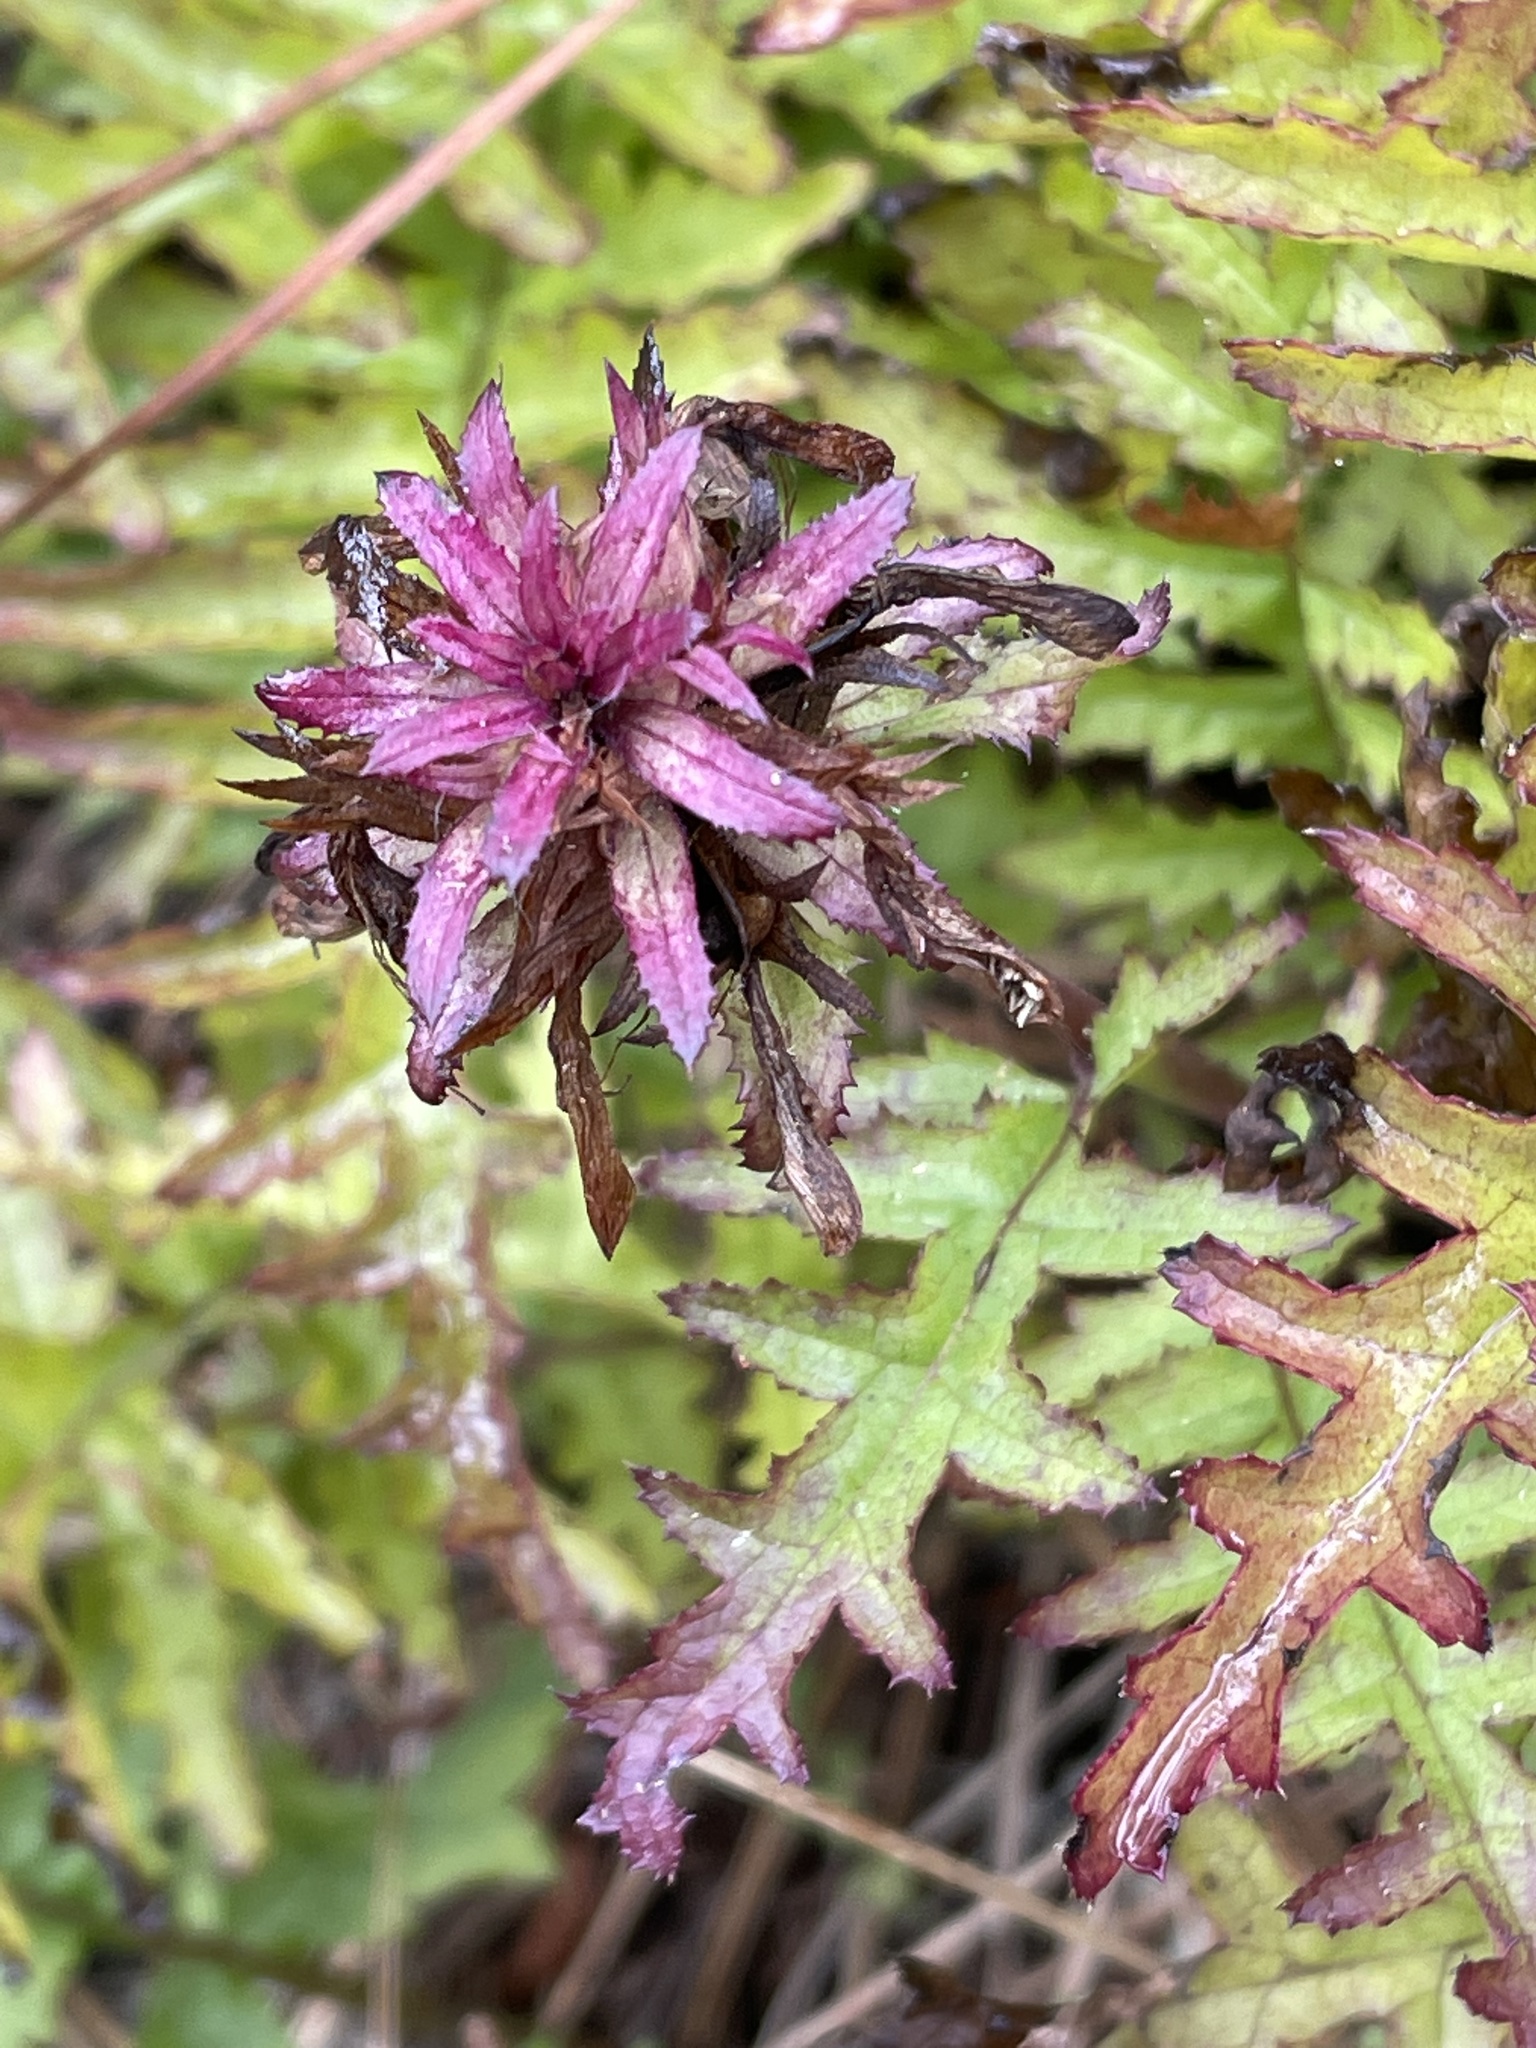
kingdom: Plantae
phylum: Tracheophyta
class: Magnoliopsida
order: Lamiales
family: Orobanchaceae
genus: Pedicularis
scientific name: Pedicularis densiflora
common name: Indian warrior
